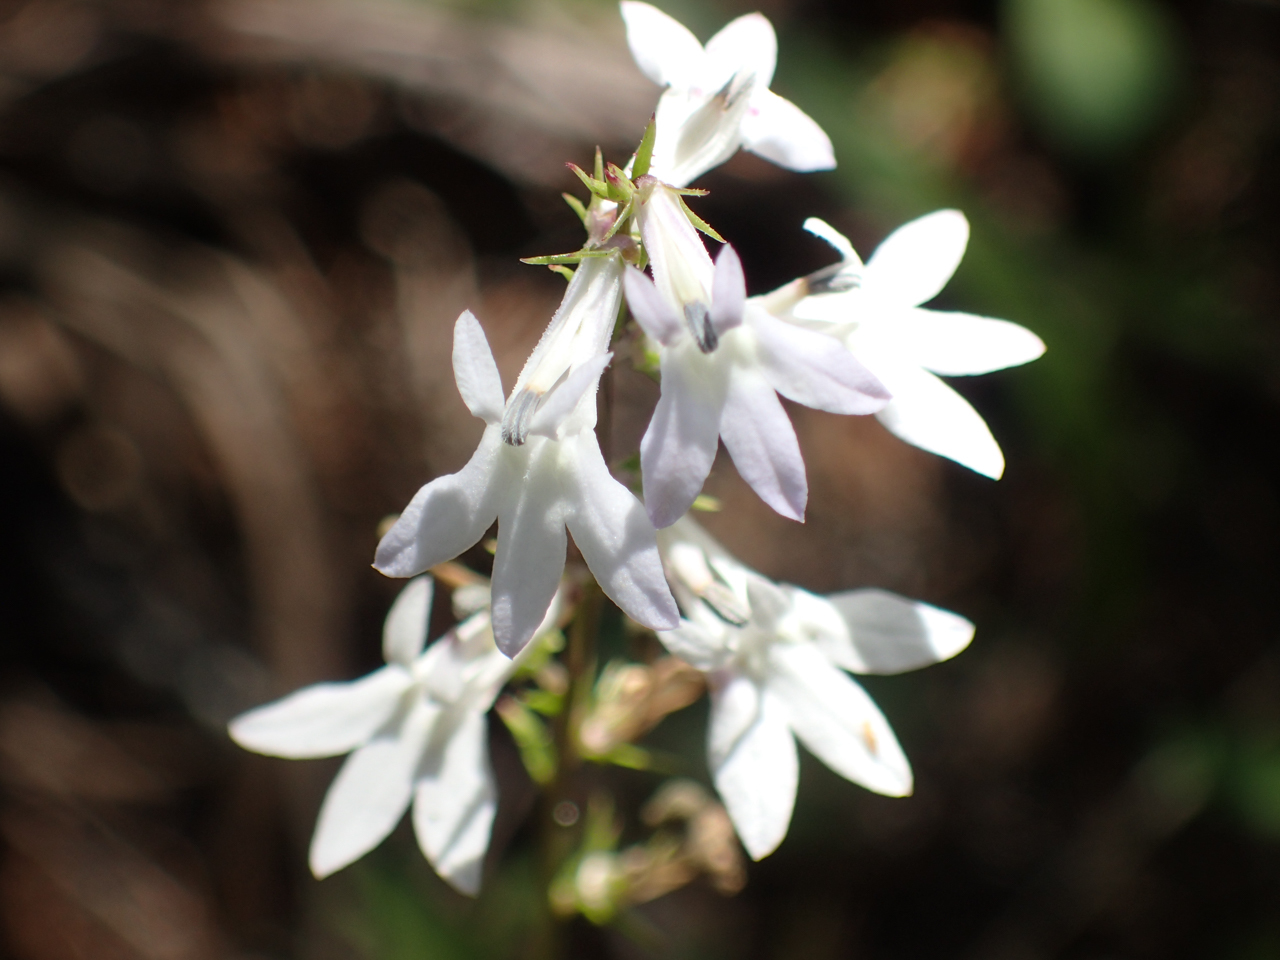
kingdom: Plantae
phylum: Tracheophyta
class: Magnoliopsida
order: Asterales
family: Campanulaceae
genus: Lobelia
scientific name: Lobelia spicata
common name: Pale-spike lobelia
